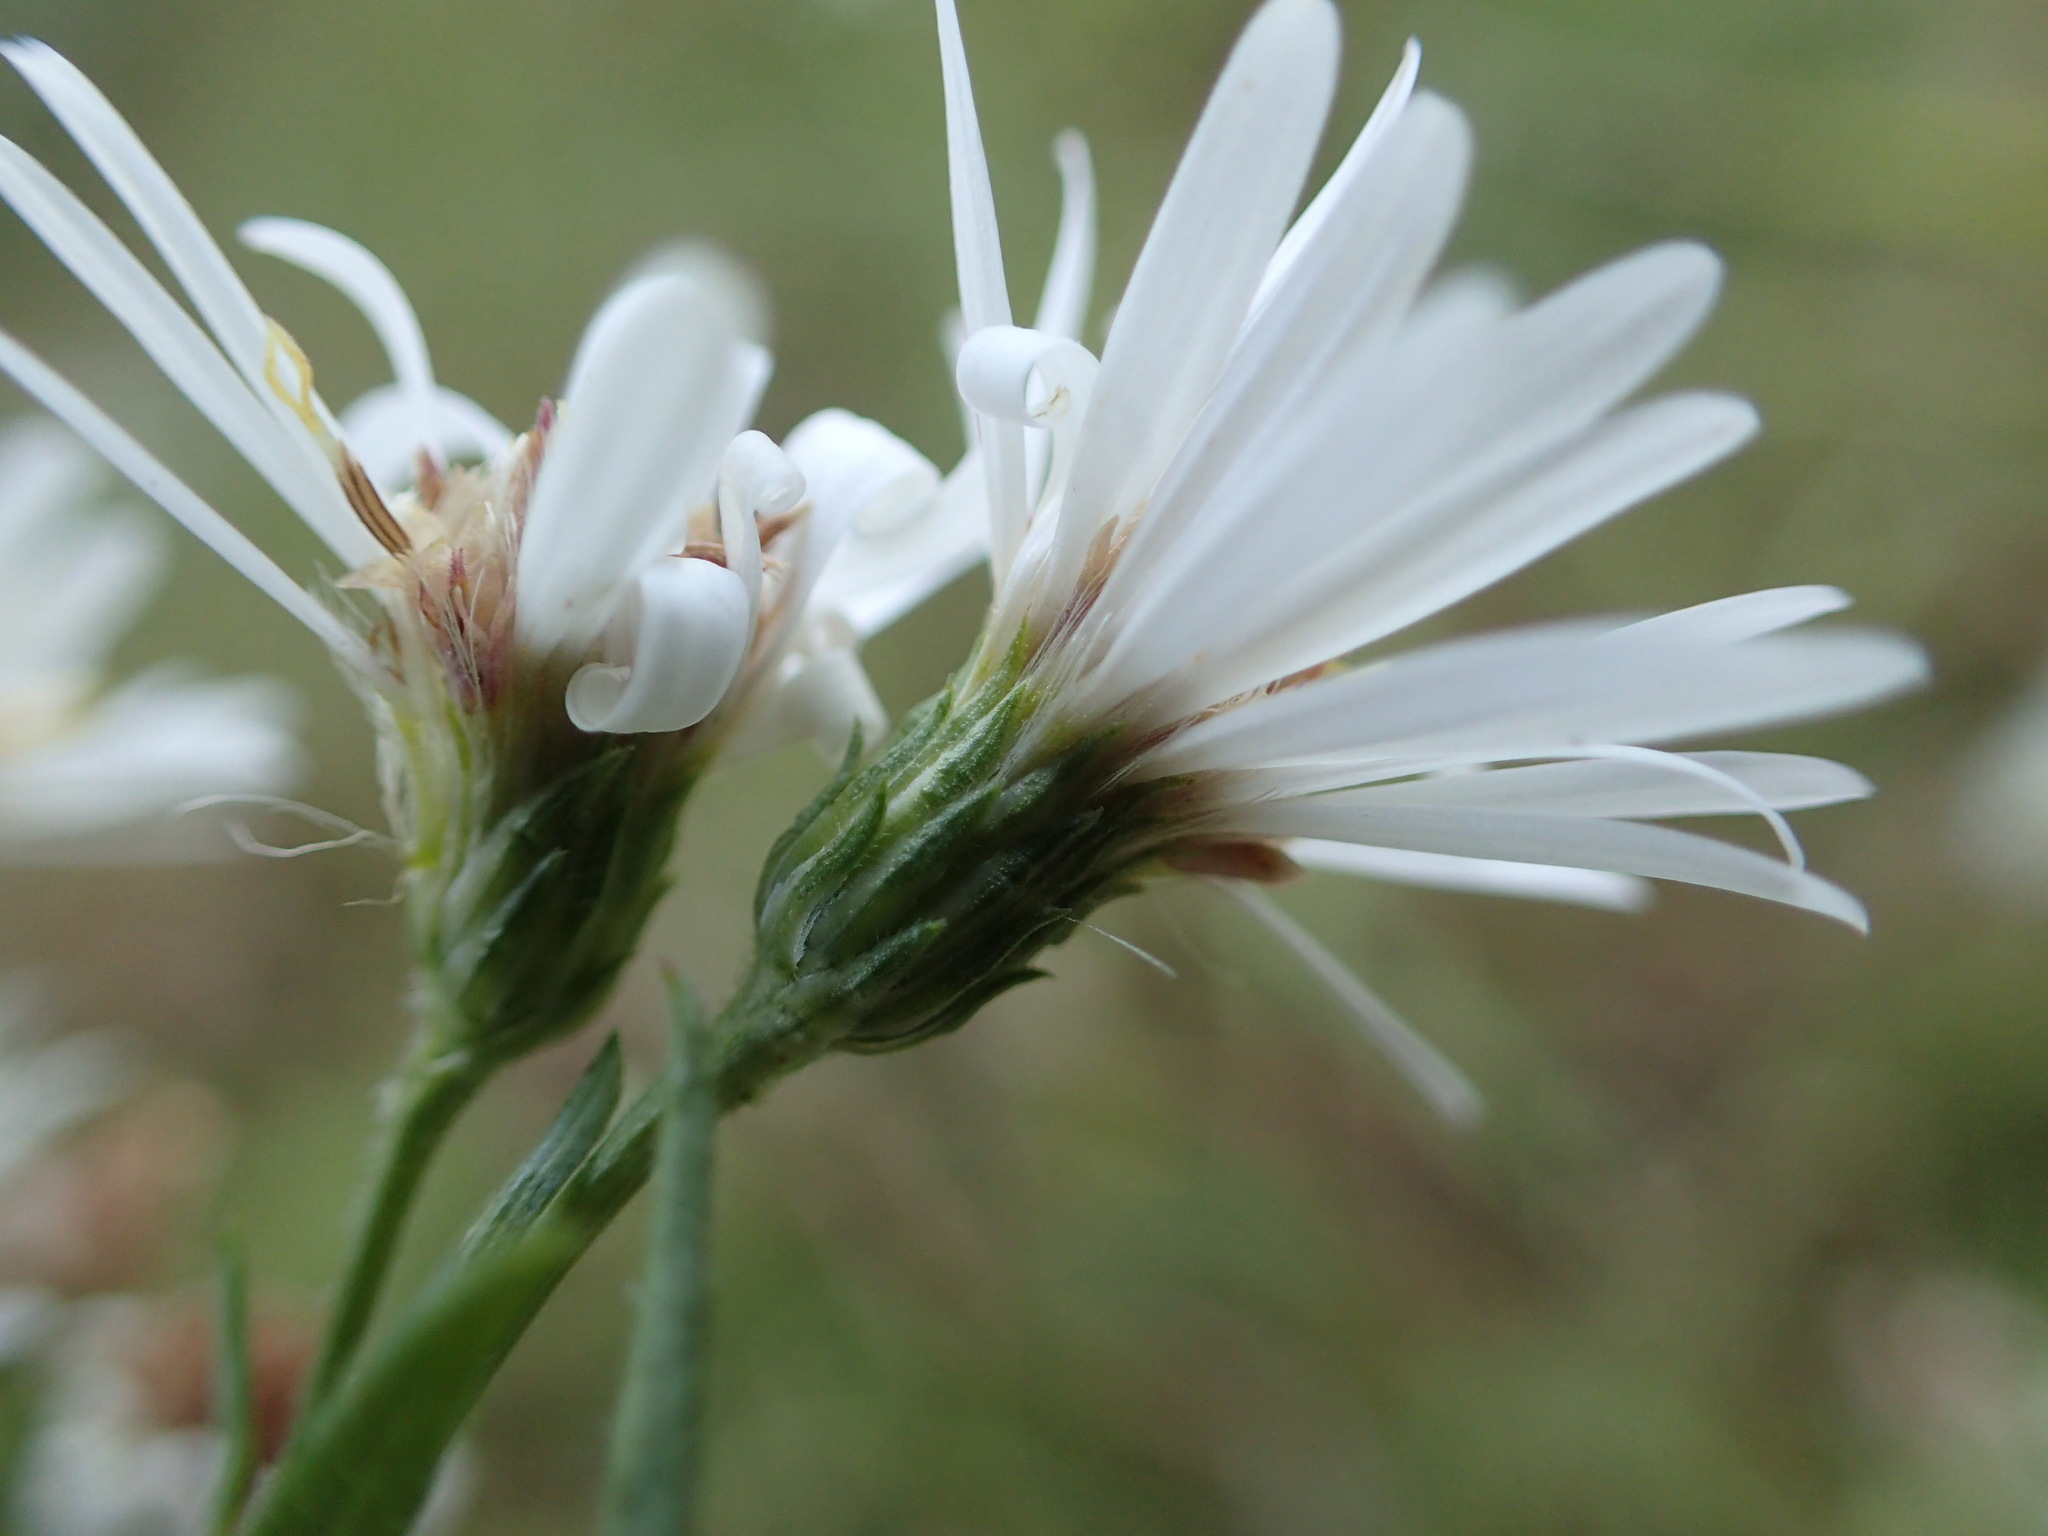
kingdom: Plantae
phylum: Tracheophyta
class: Magnoliopsida
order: Asterales
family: Asteraceae
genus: Symphyotrichum
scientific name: Symphyotrichum boreale
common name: Northern bog aster
